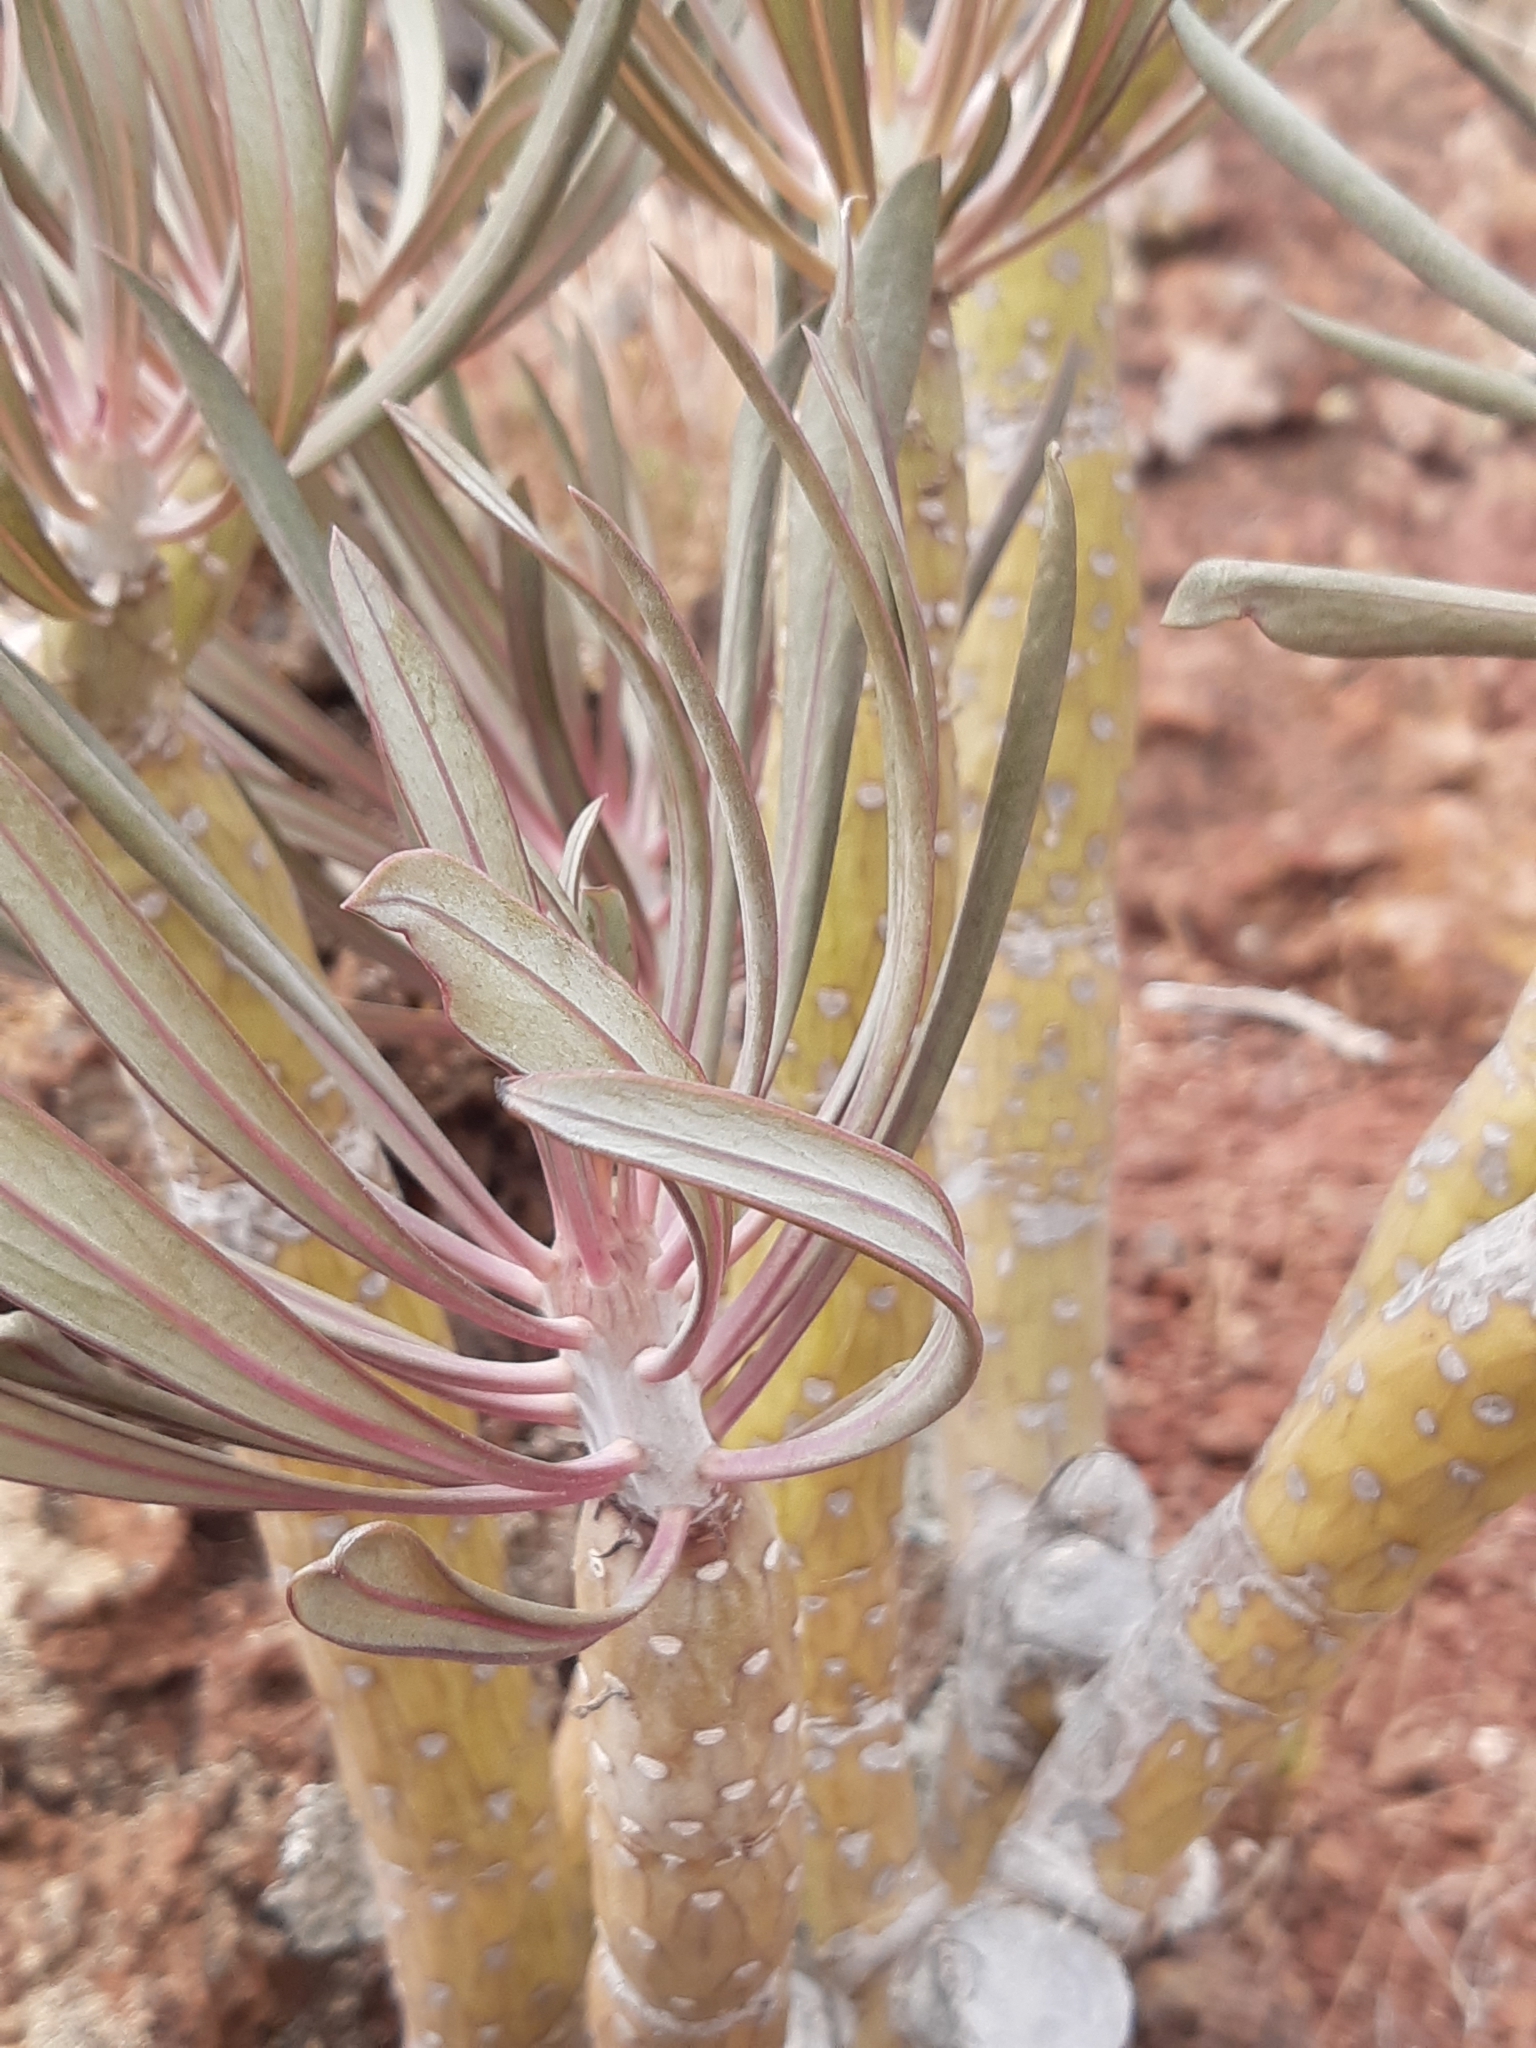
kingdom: Plantae
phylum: Tracheophyta
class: Magnoliopsida
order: Asterales
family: Asteraceae
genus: Kleinia
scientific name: Kleinia neriifolia
